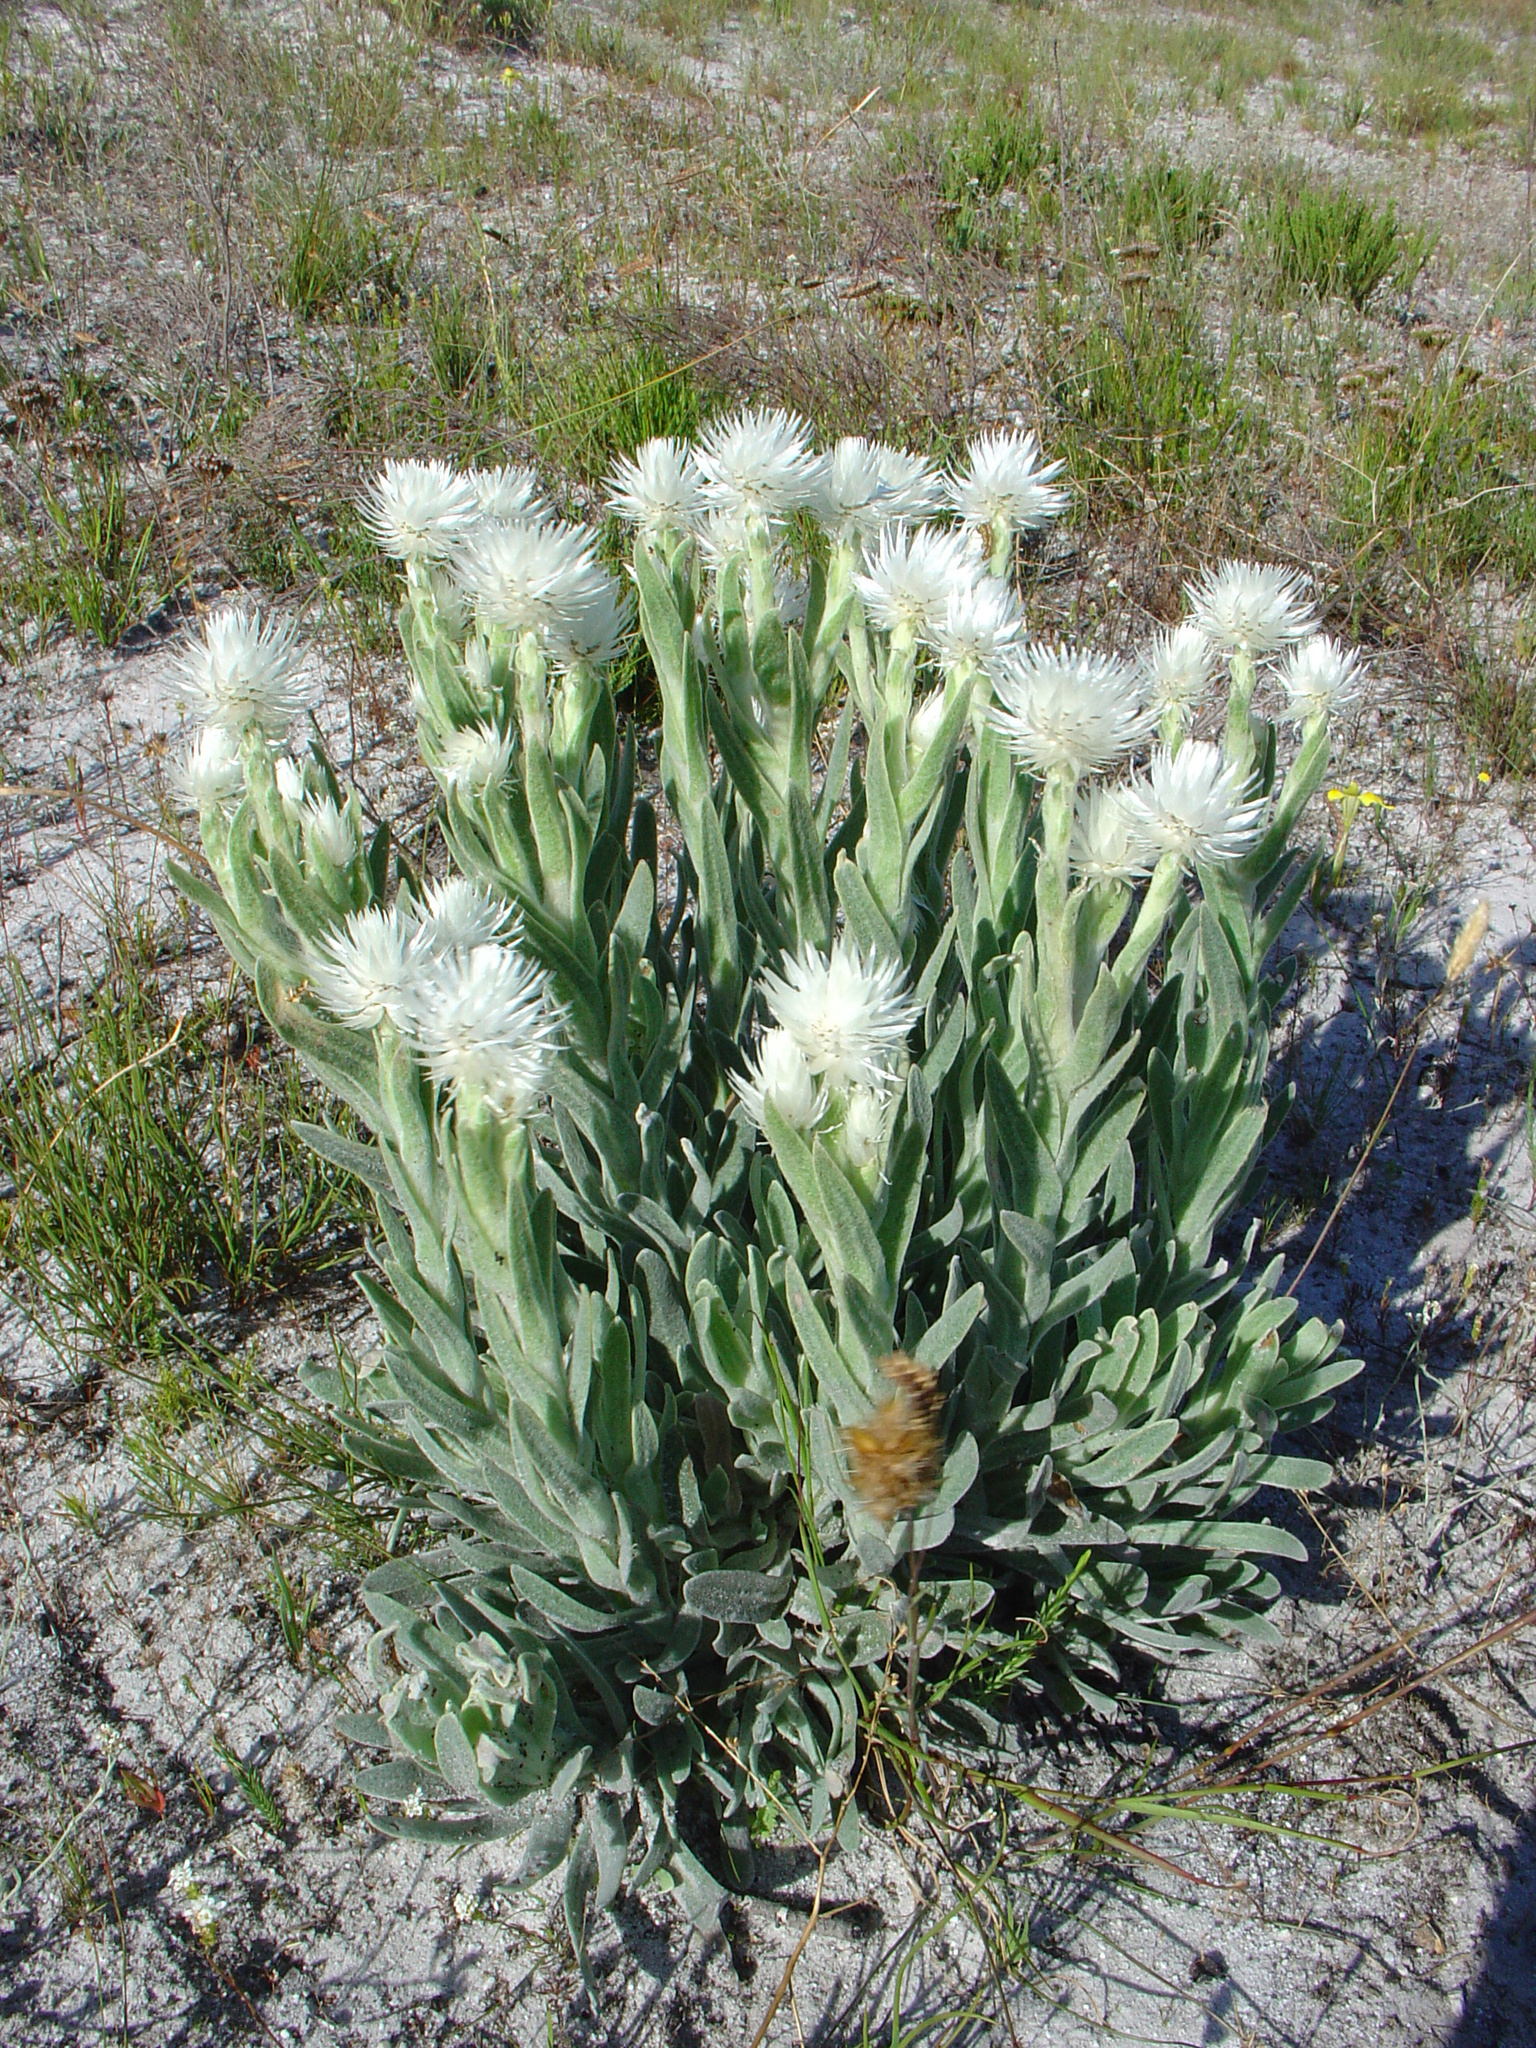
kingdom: Plantae
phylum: Tracheophyta
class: Magnoliopsida
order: Asterales
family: Asteraceae
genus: Syncarpha
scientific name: Syncarpha vestita
